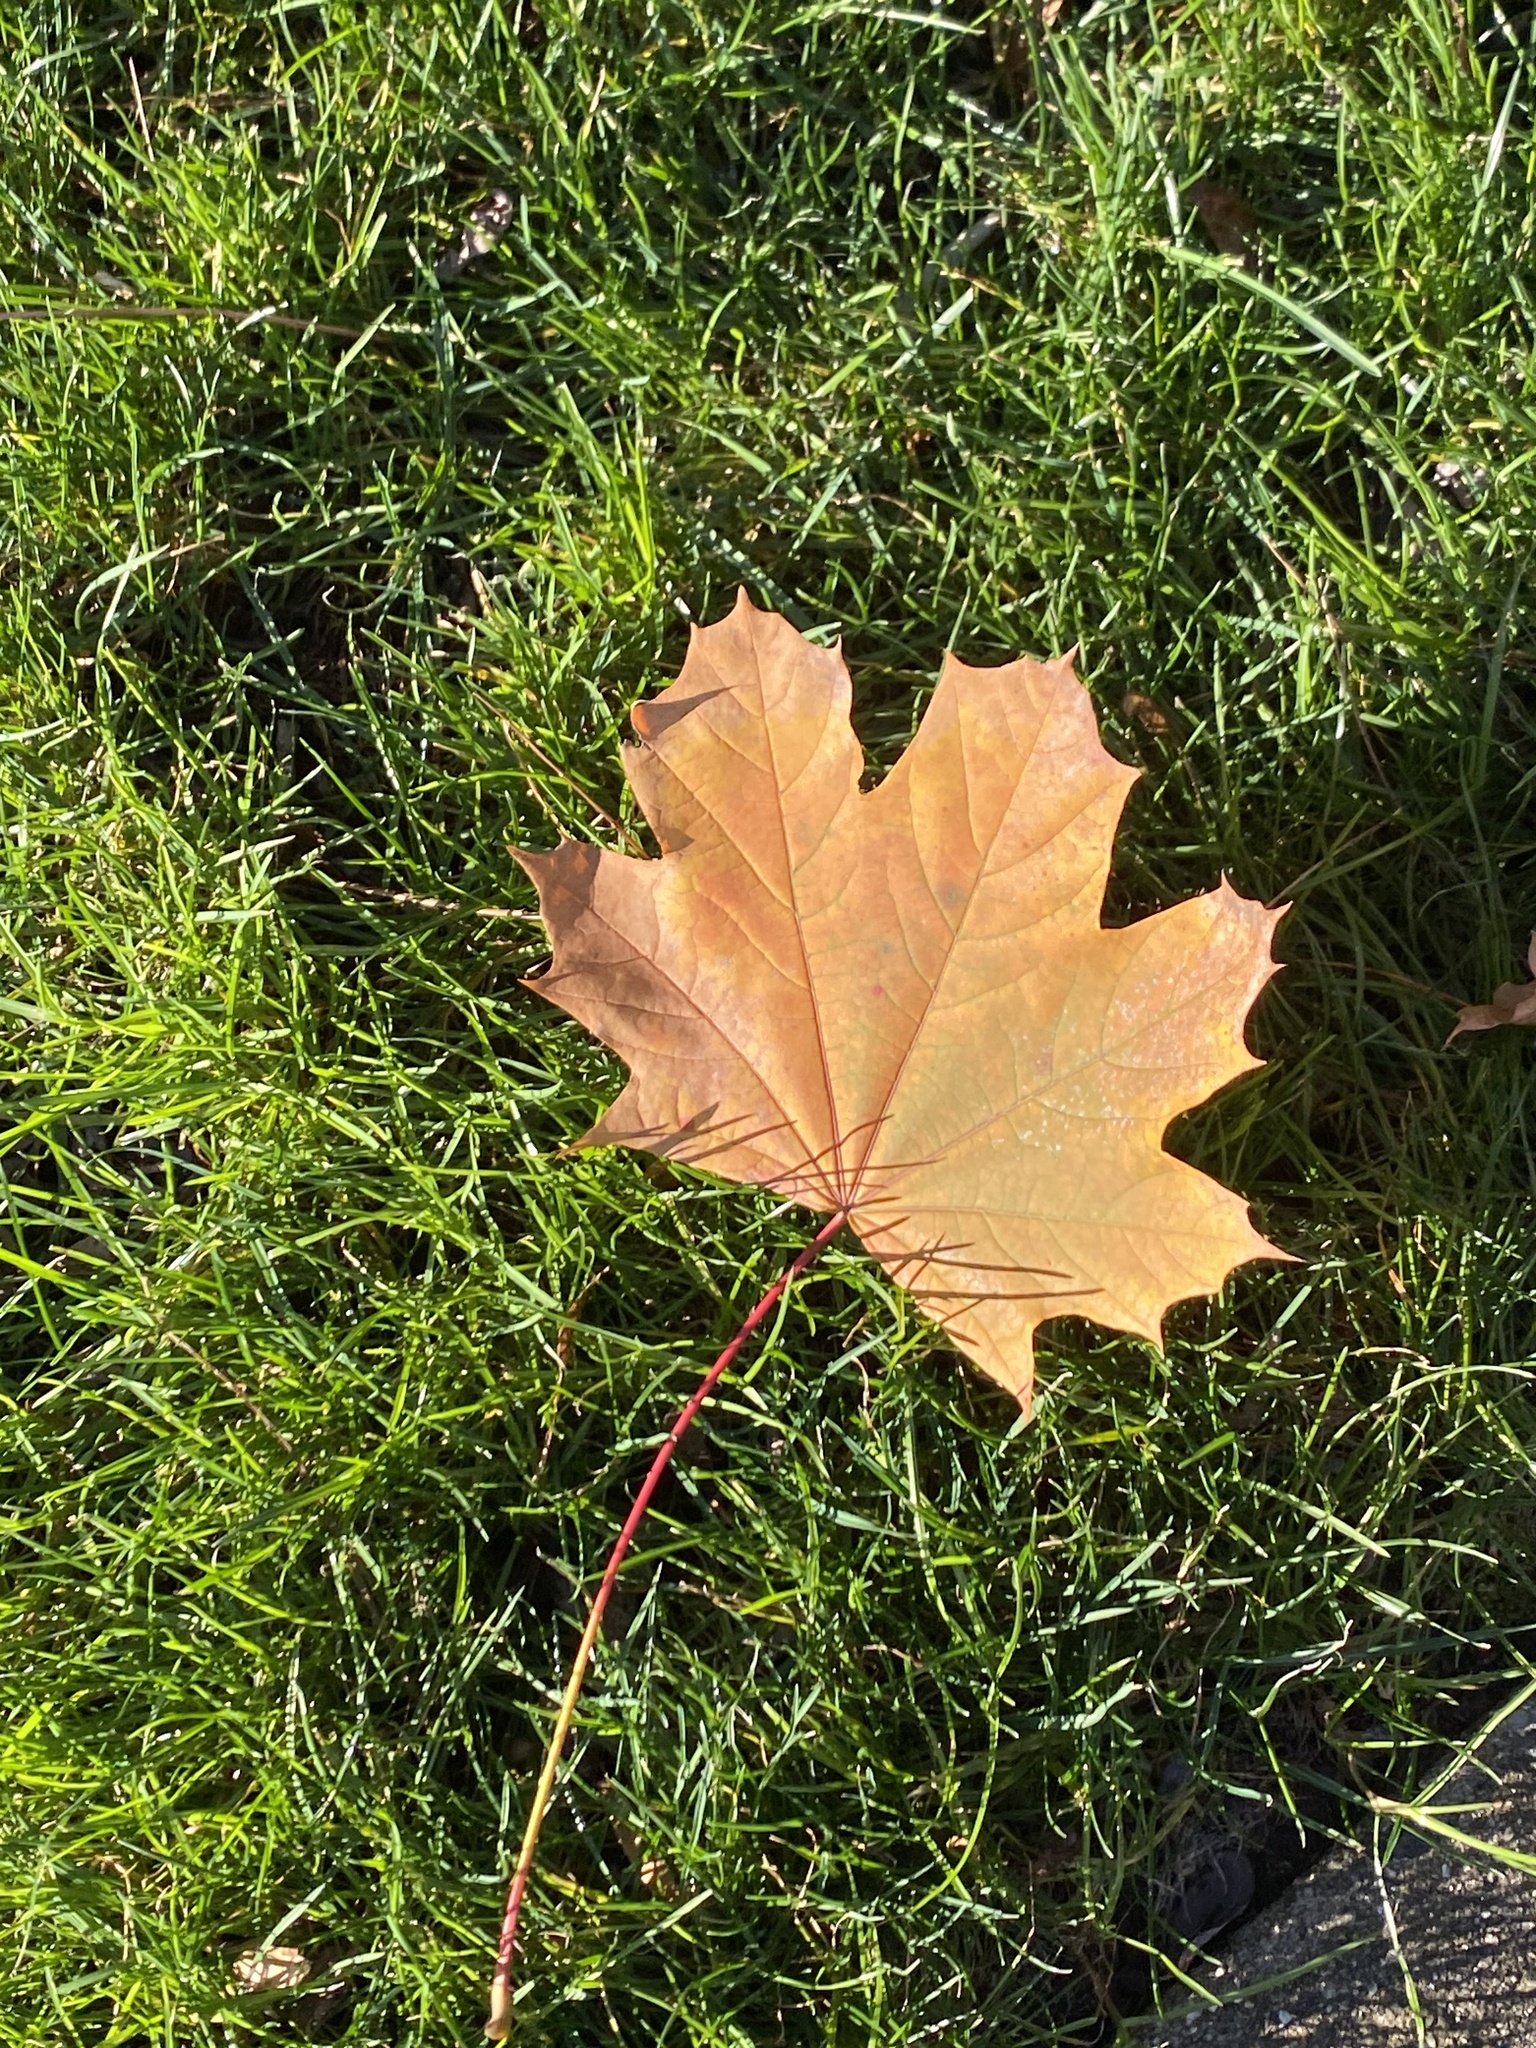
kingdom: Plantae
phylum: Tracheophyta
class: Magnoliopsida
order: Sapindales
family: Sapindaceae
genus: Acer
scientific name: Acer platanoides
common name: Norway maple
